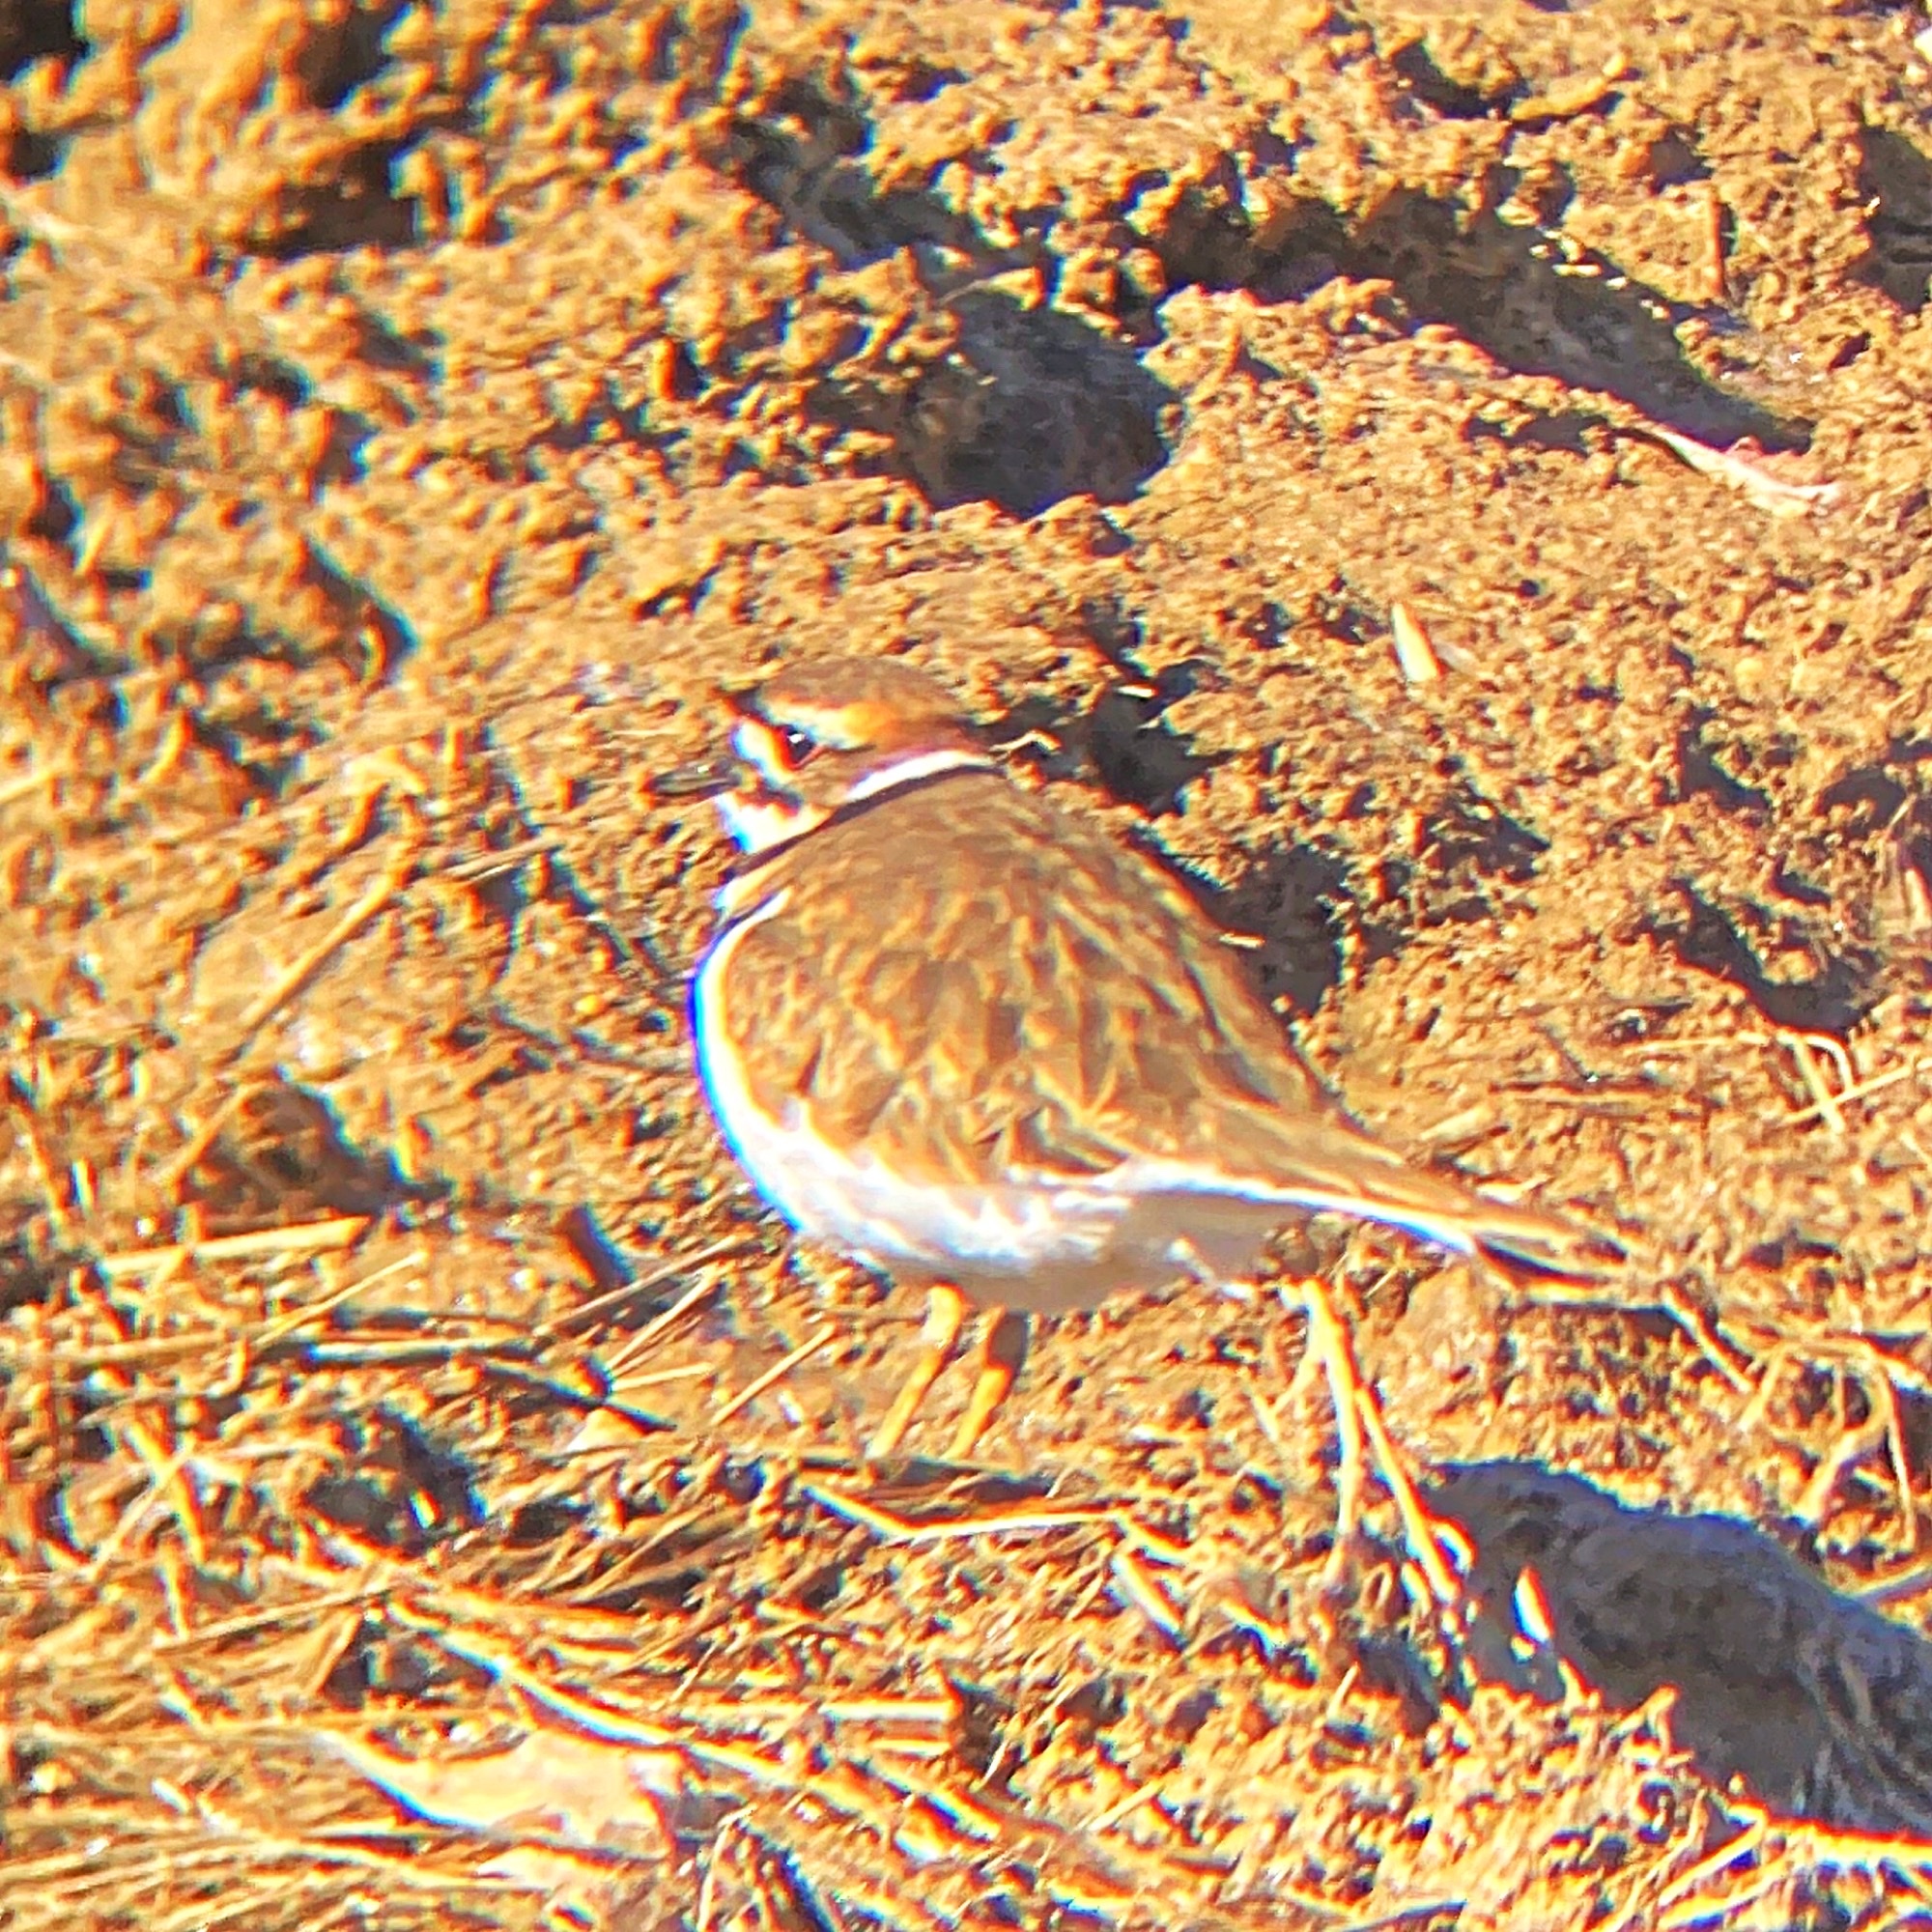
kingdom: Animalia
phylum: Chordata
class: Aves
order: Charadriiformes
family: Charadriidae
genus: Charadrius
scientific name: Charadrius vociferus
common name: Killdeer
